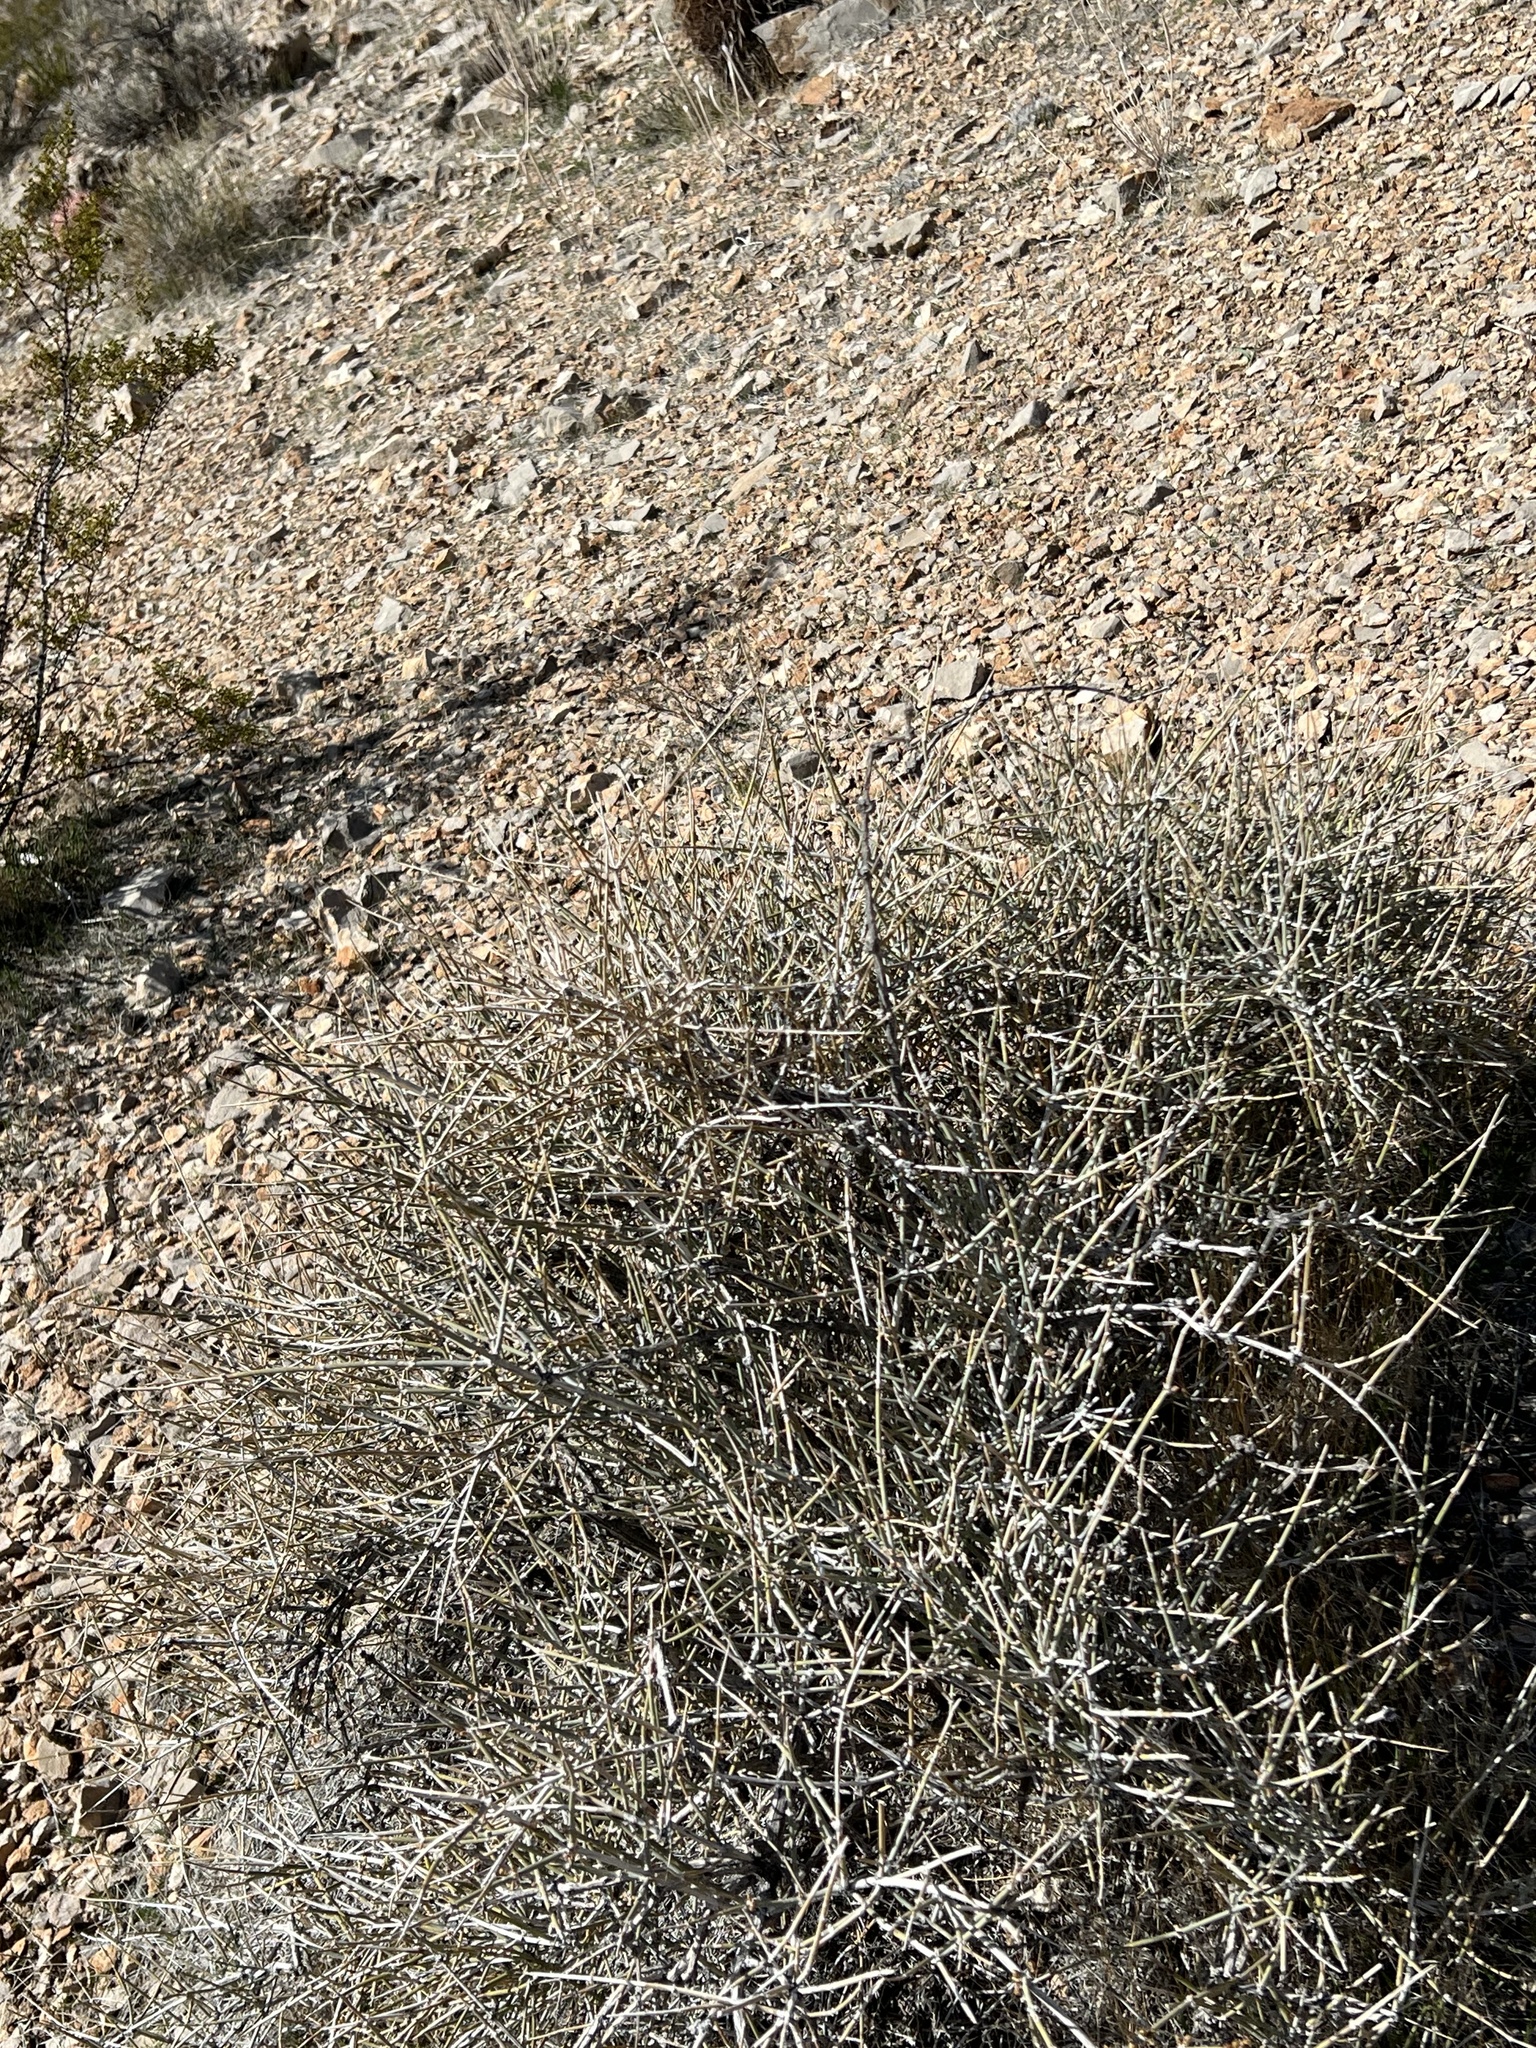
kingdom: Plantae
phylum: Tracheophyta
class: Gnetopsida
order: Ephedrales
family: Ephedraceae
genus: Ephedra
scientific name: Ephedra nevadensis
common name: Gray ephedra
